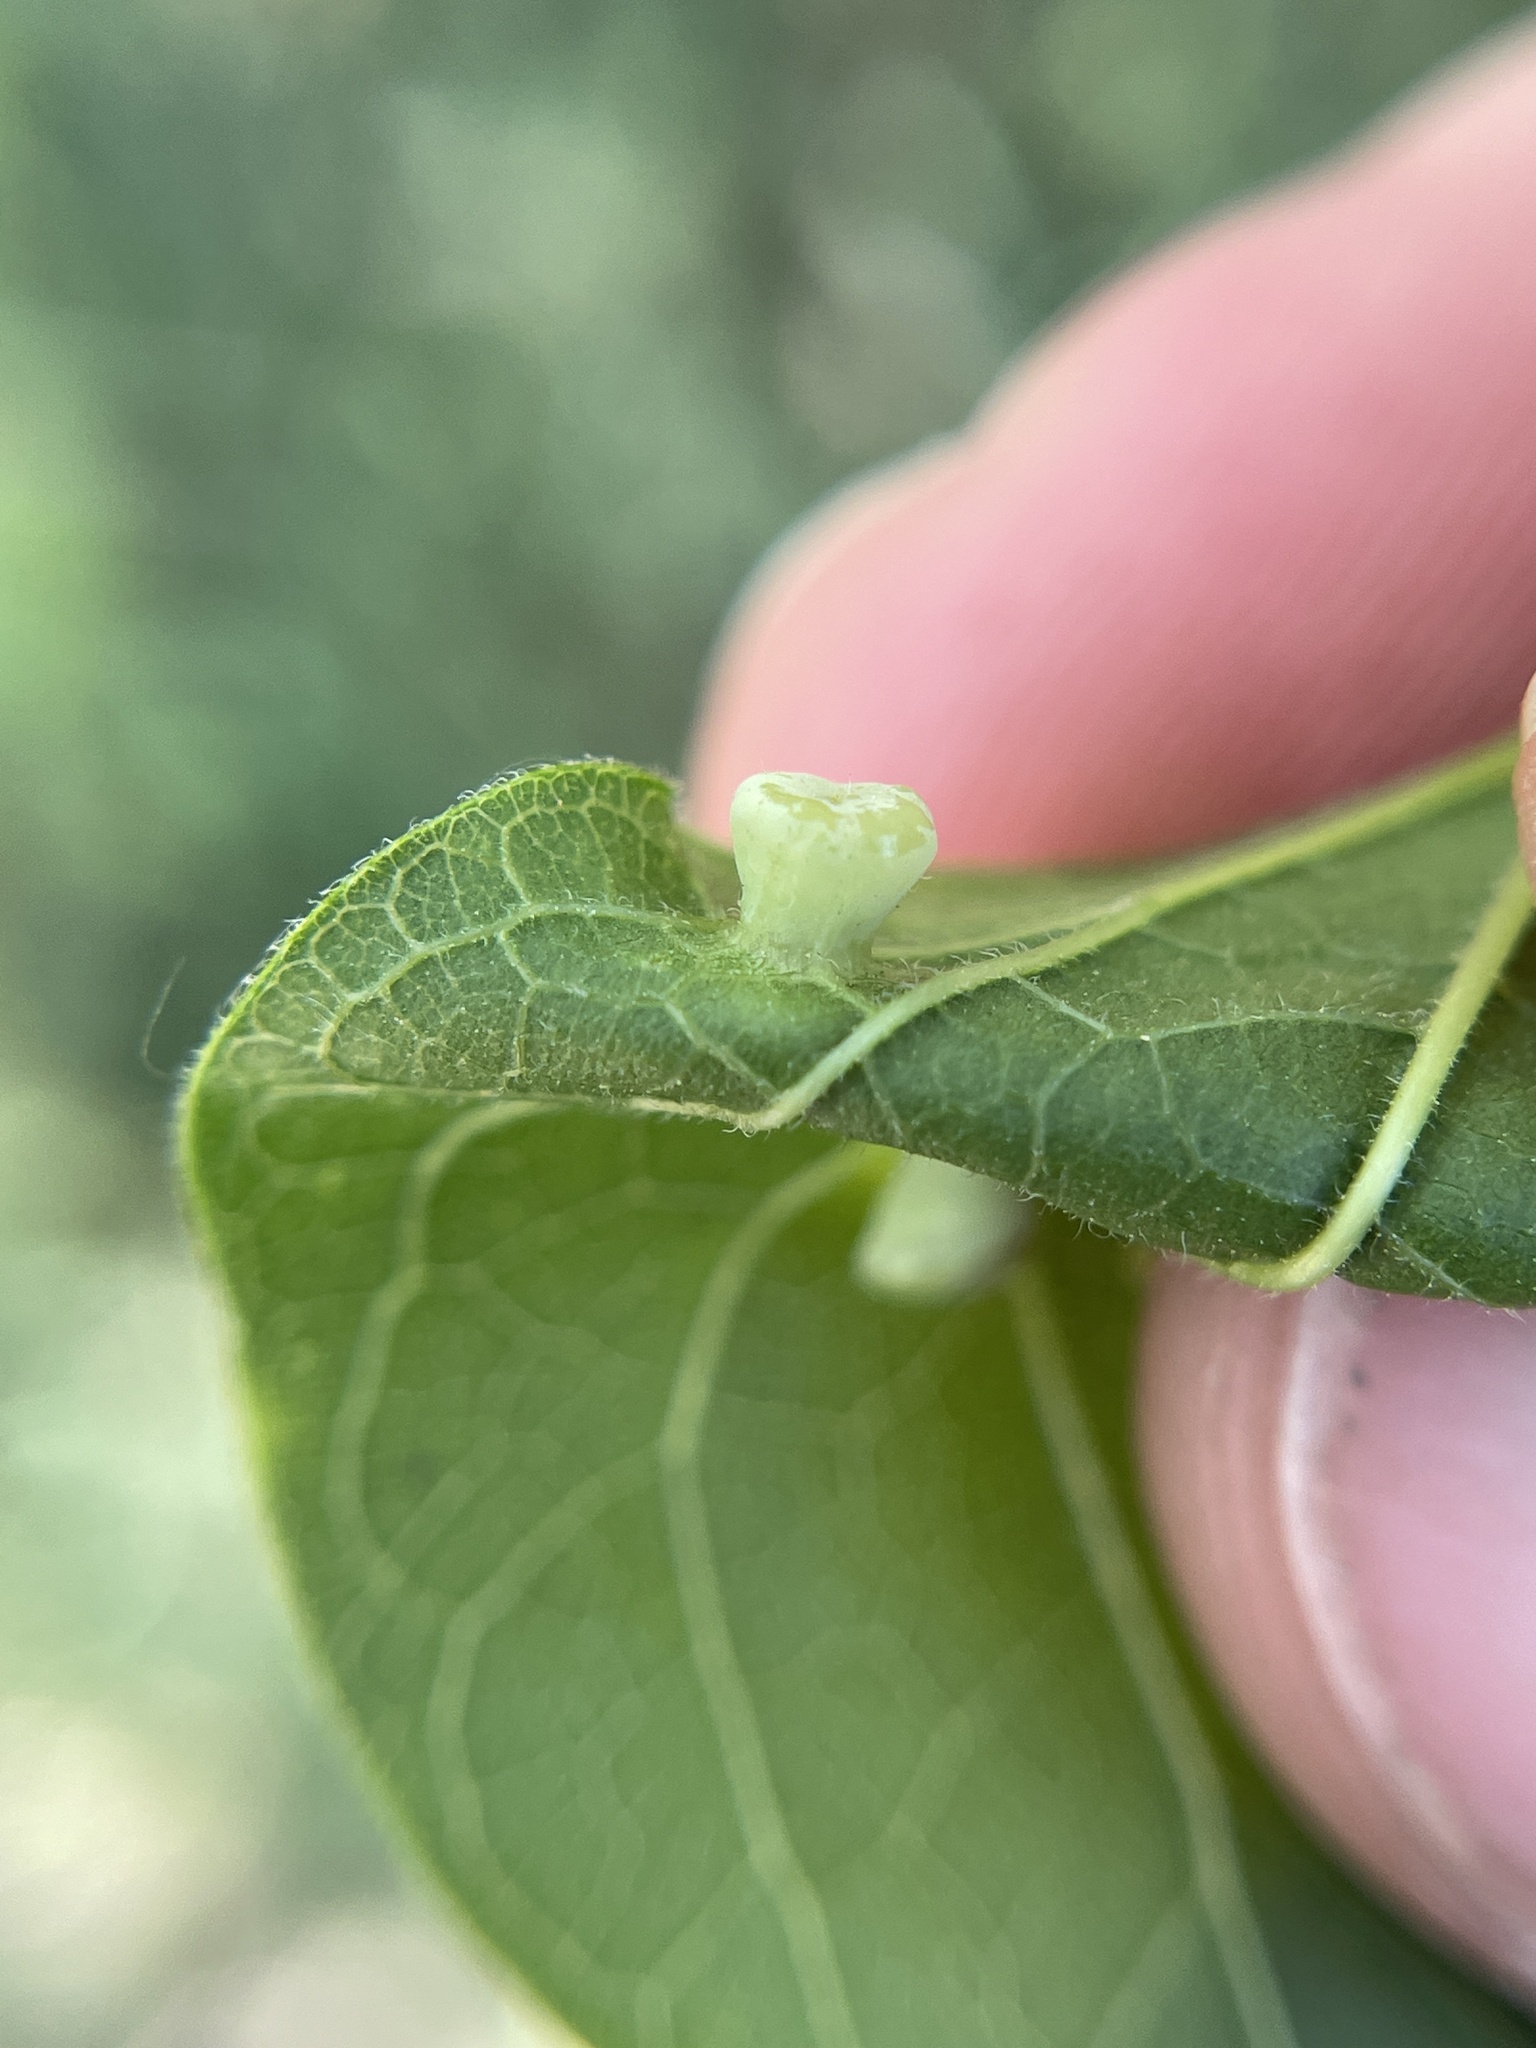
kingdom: Animalia
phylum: Arthropoda
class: Insecta
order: Hemiptera
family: Aphalaridae
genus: Pachypsylla
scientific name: Pachypsylla celtidismamma
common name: Hackberry nipplegall psyllid
